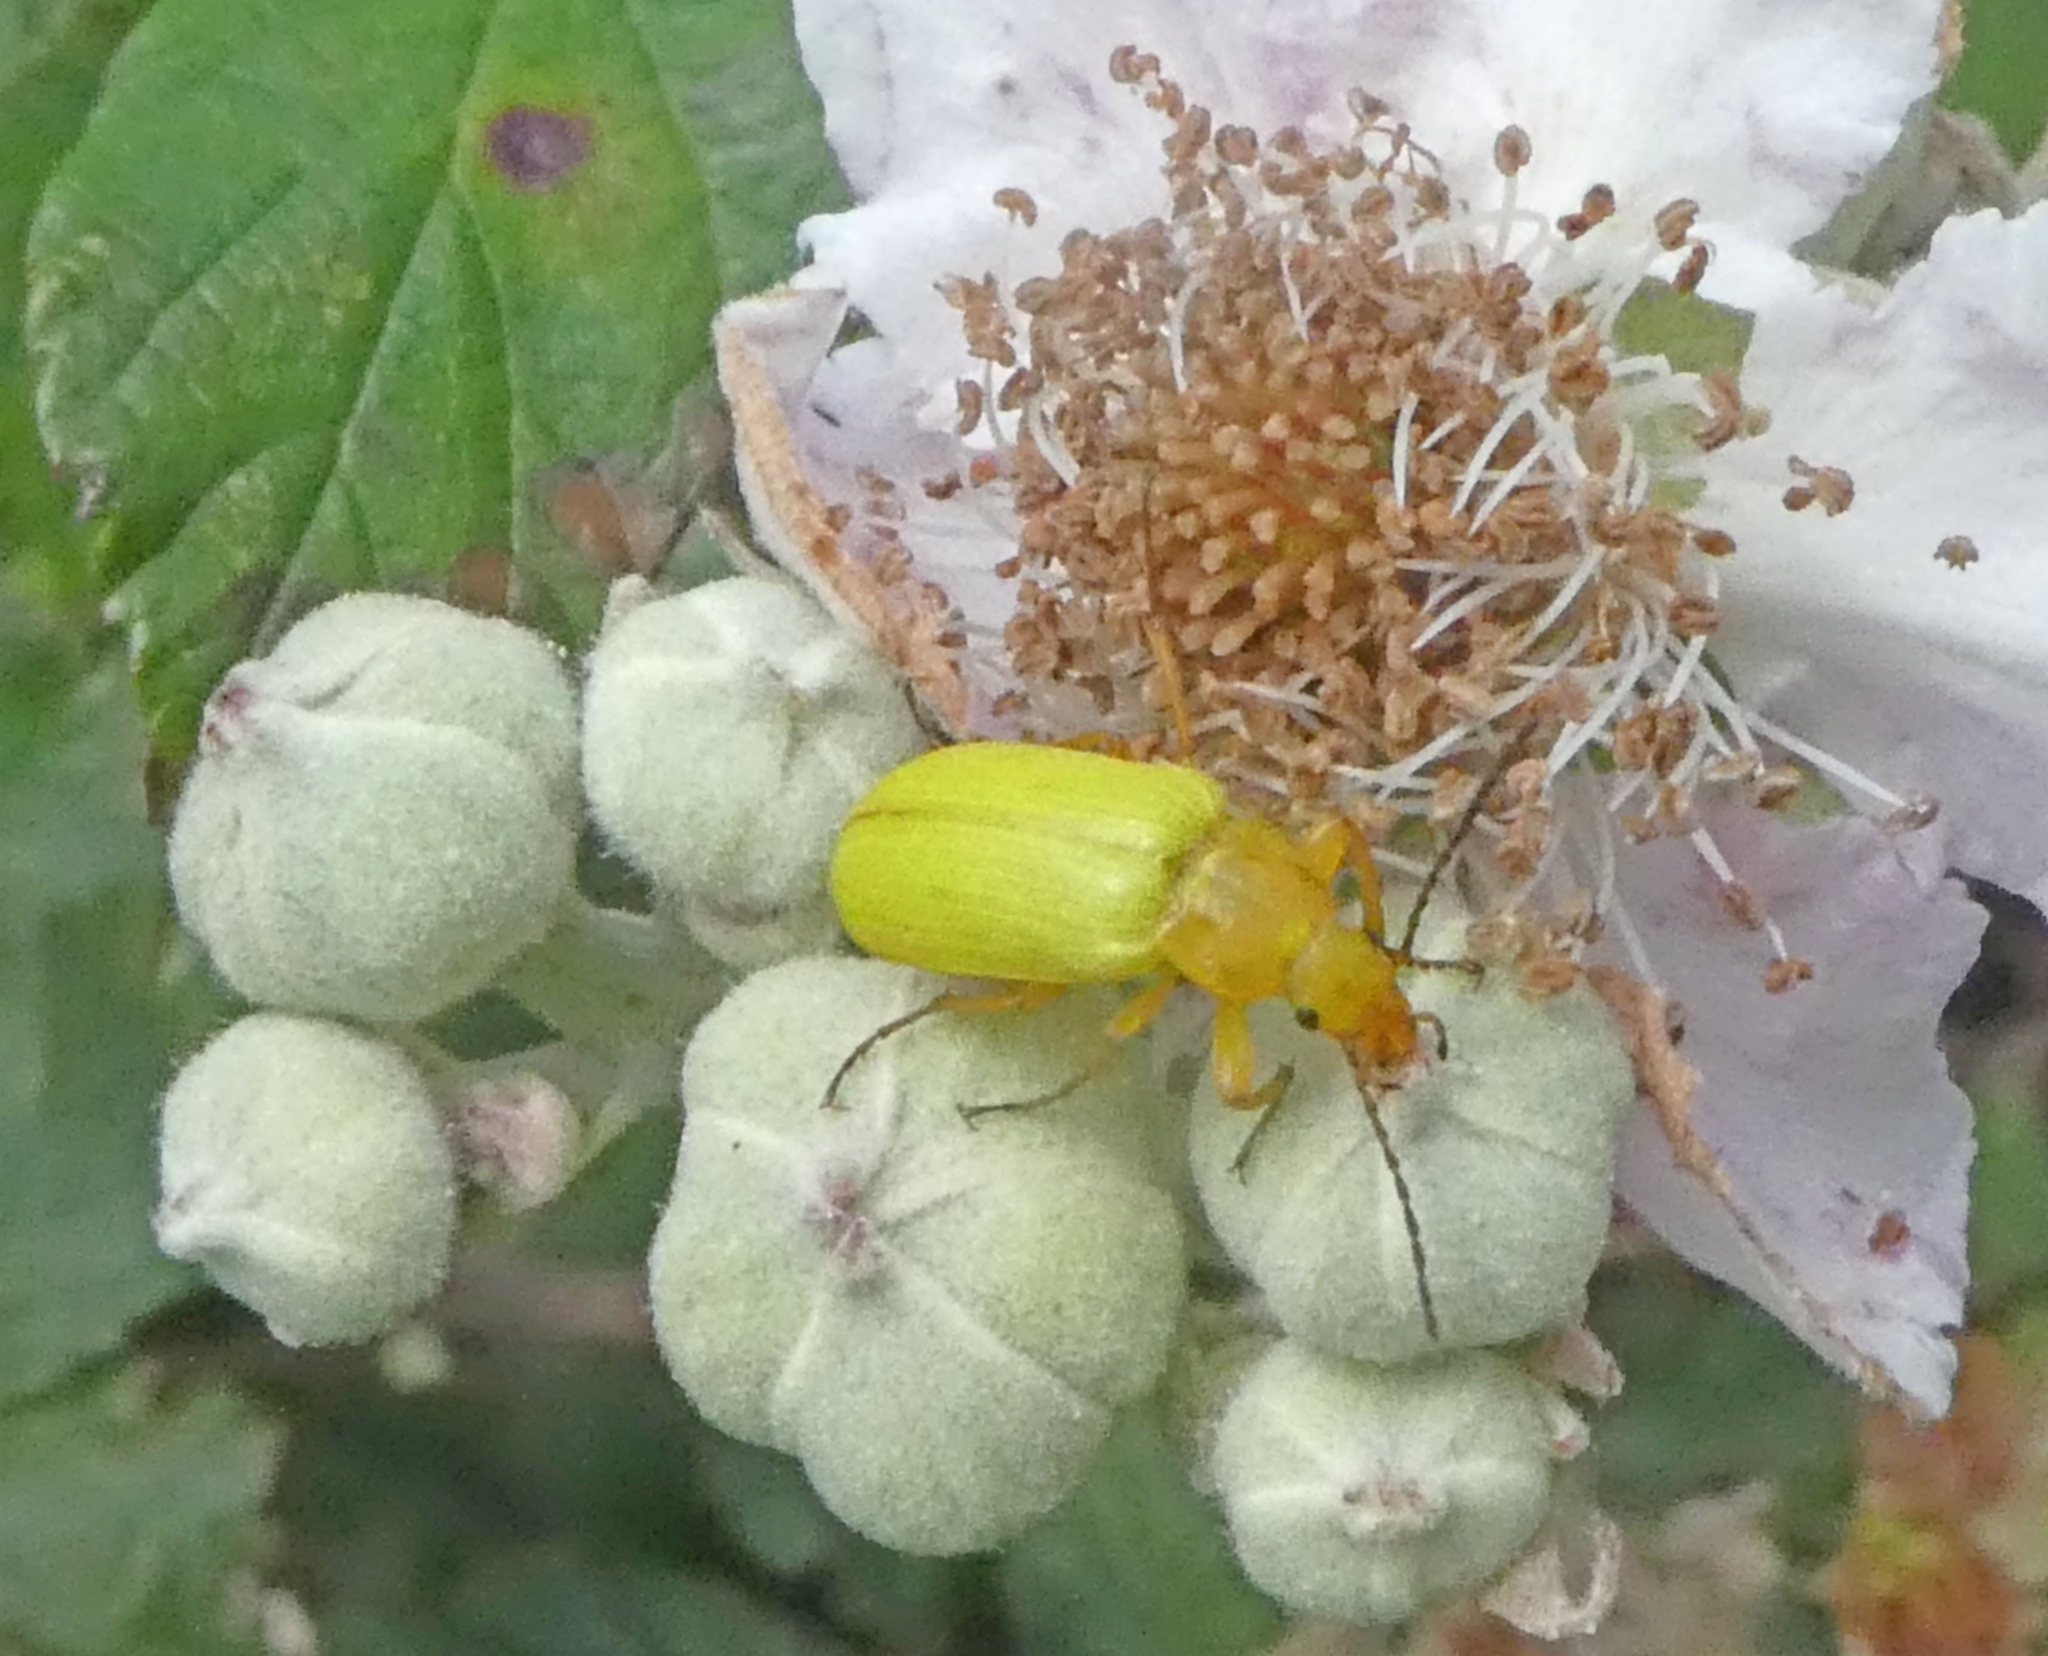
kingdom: Animalia
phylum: Arthropoda
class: Insecta
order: Coleoptera
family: Tenebrionidae
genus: Cteniopus
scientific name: Cteniopus sulphureus
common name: Sulphur beetle
